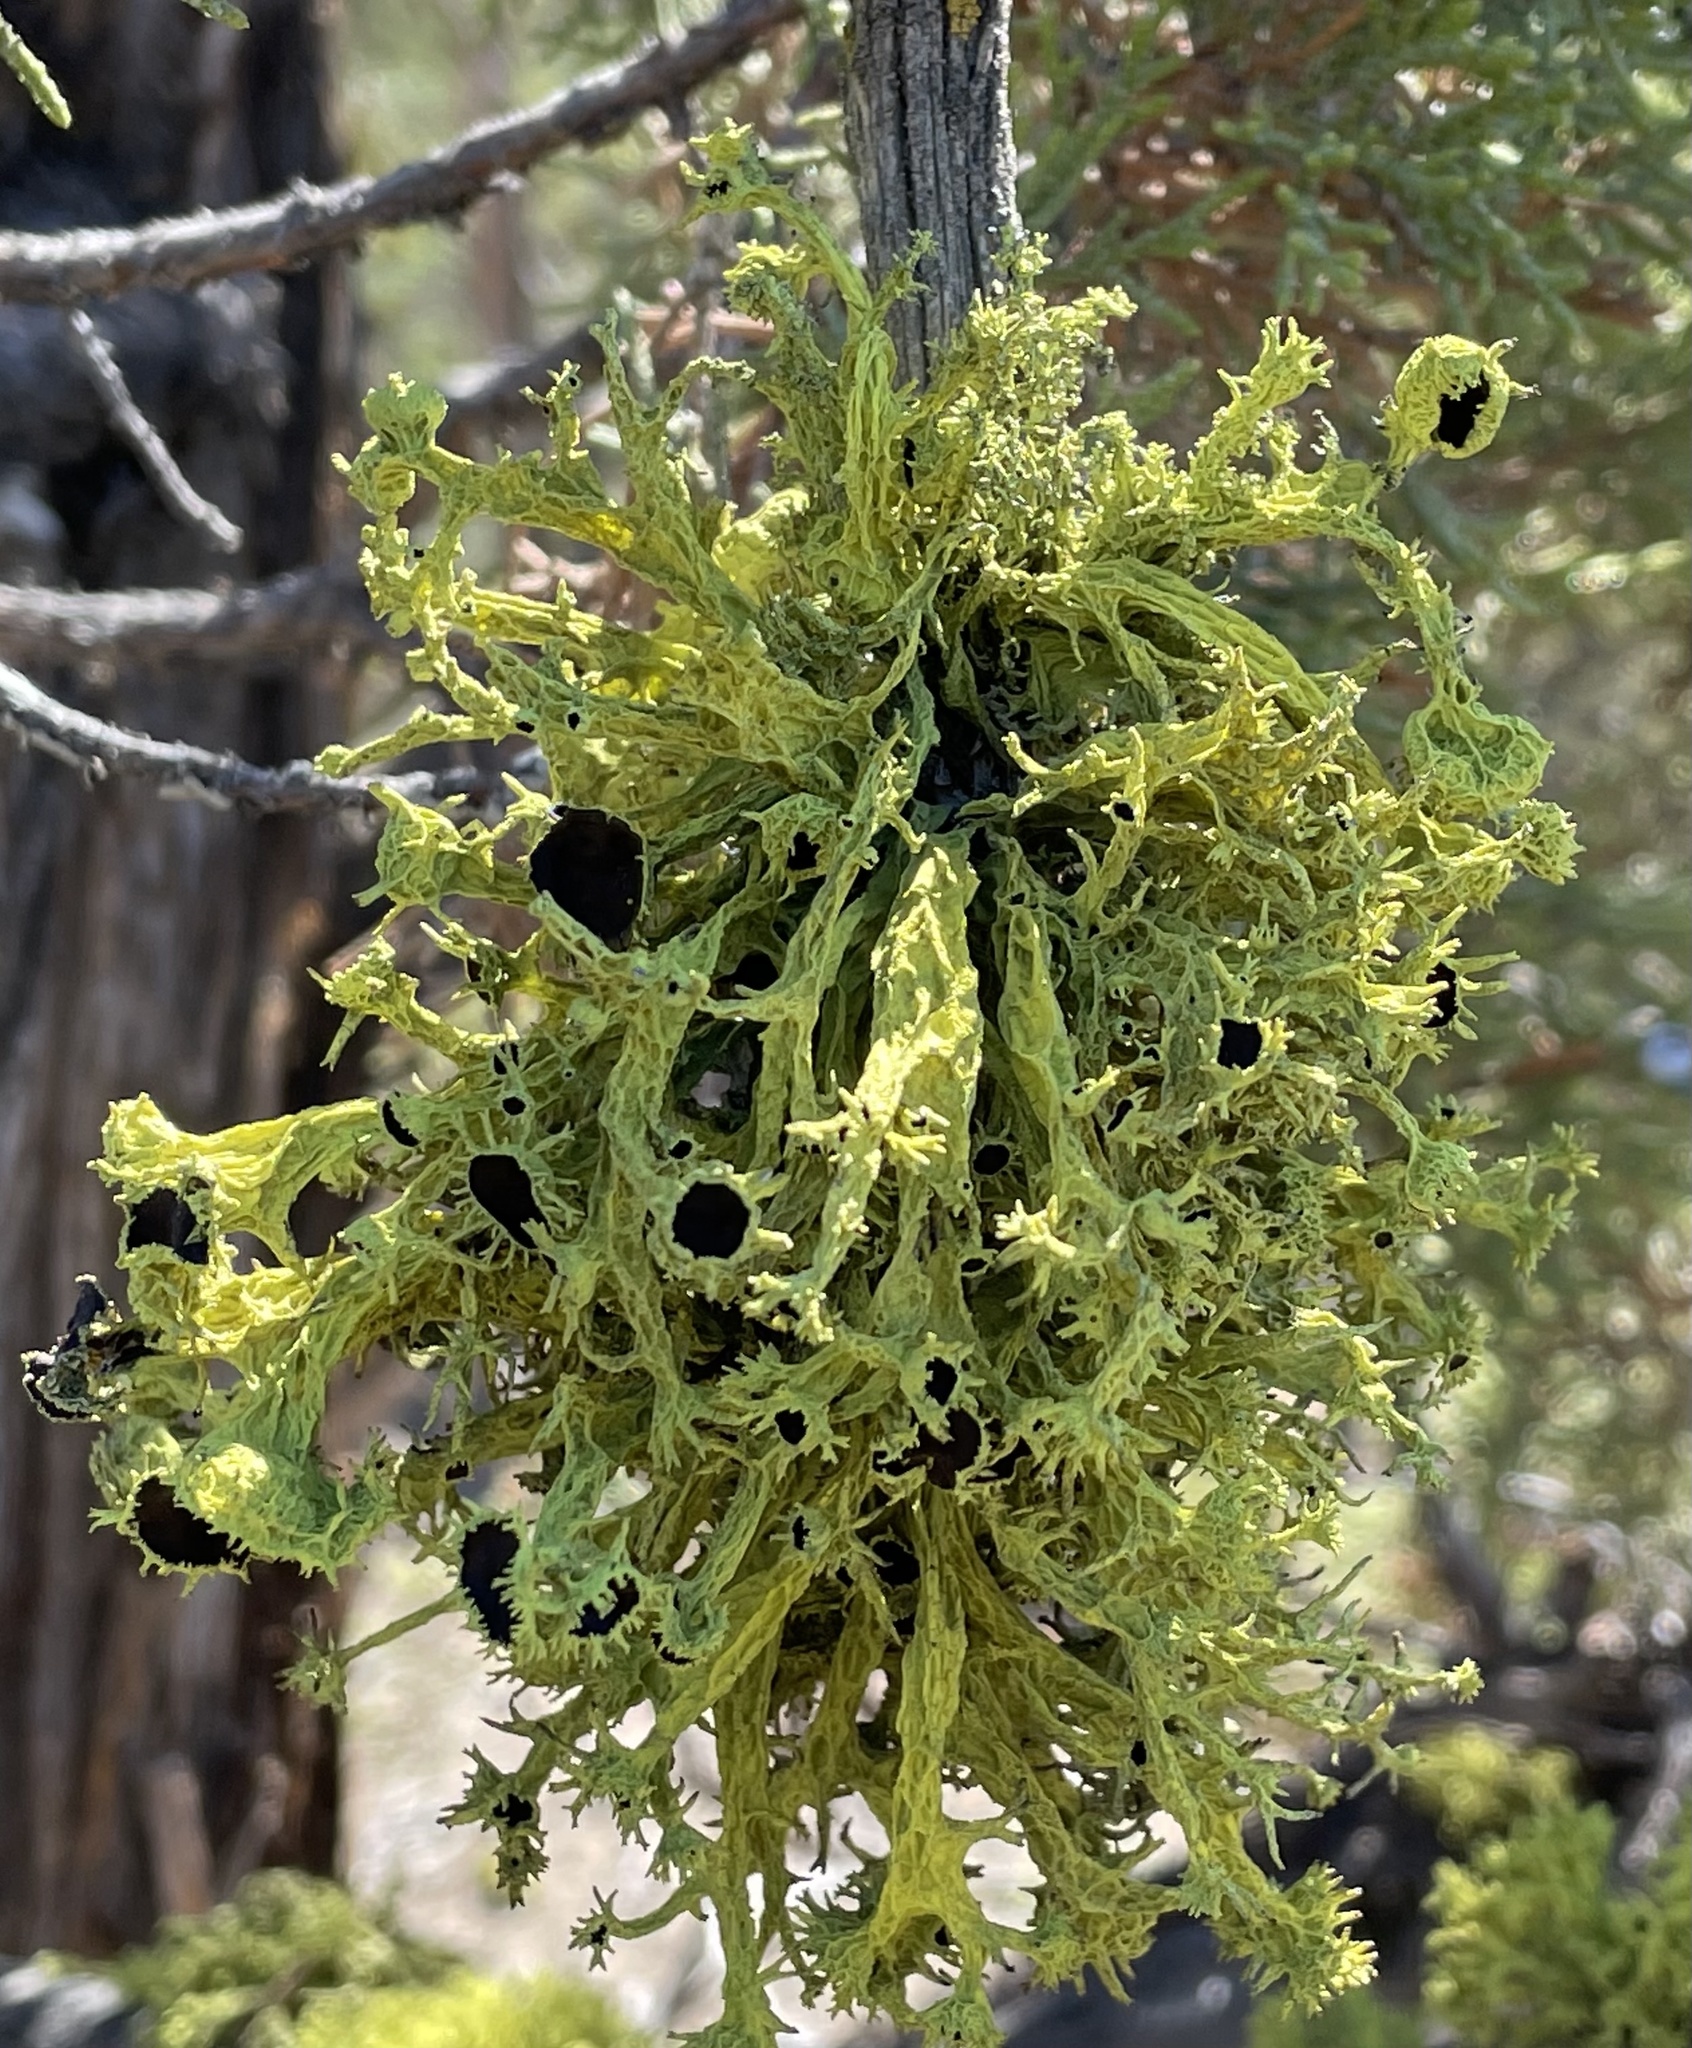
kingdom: Fungi
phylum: Ascomycota
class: Lecanoromycetes
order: Lecanorales
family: Parmeliaceae
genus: Letharia
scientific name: Letharia columbiana
